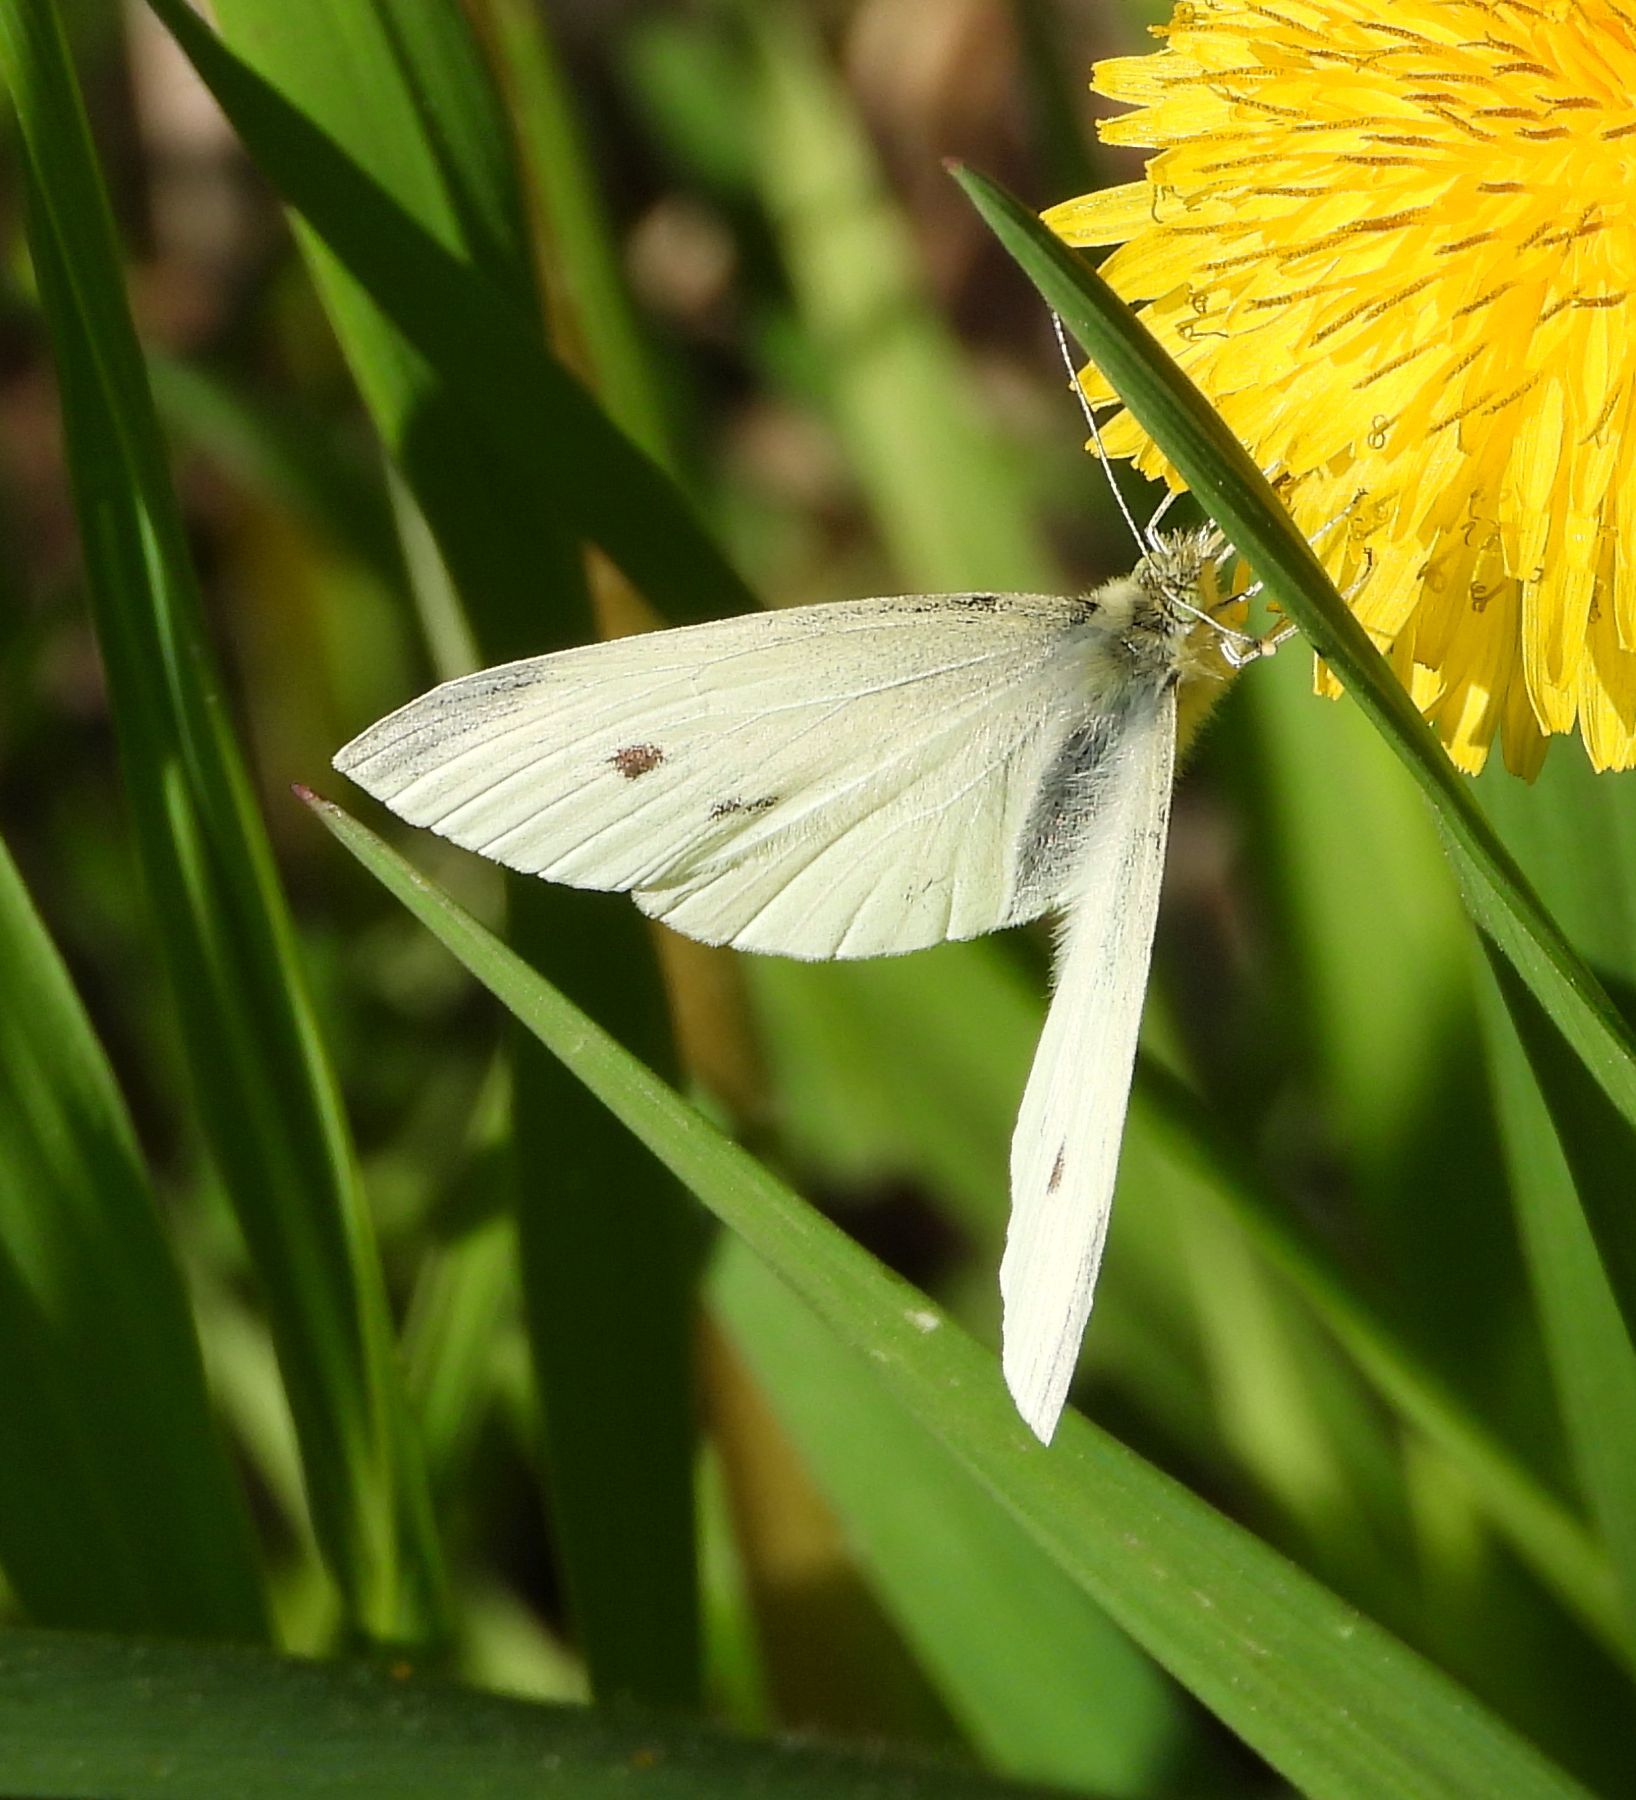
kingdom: Animalia
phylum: Arthropoda
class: Insecta
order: Lepidoptera
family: Pieridae
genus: Pieris
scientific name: Pieris rapae
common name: Small white
